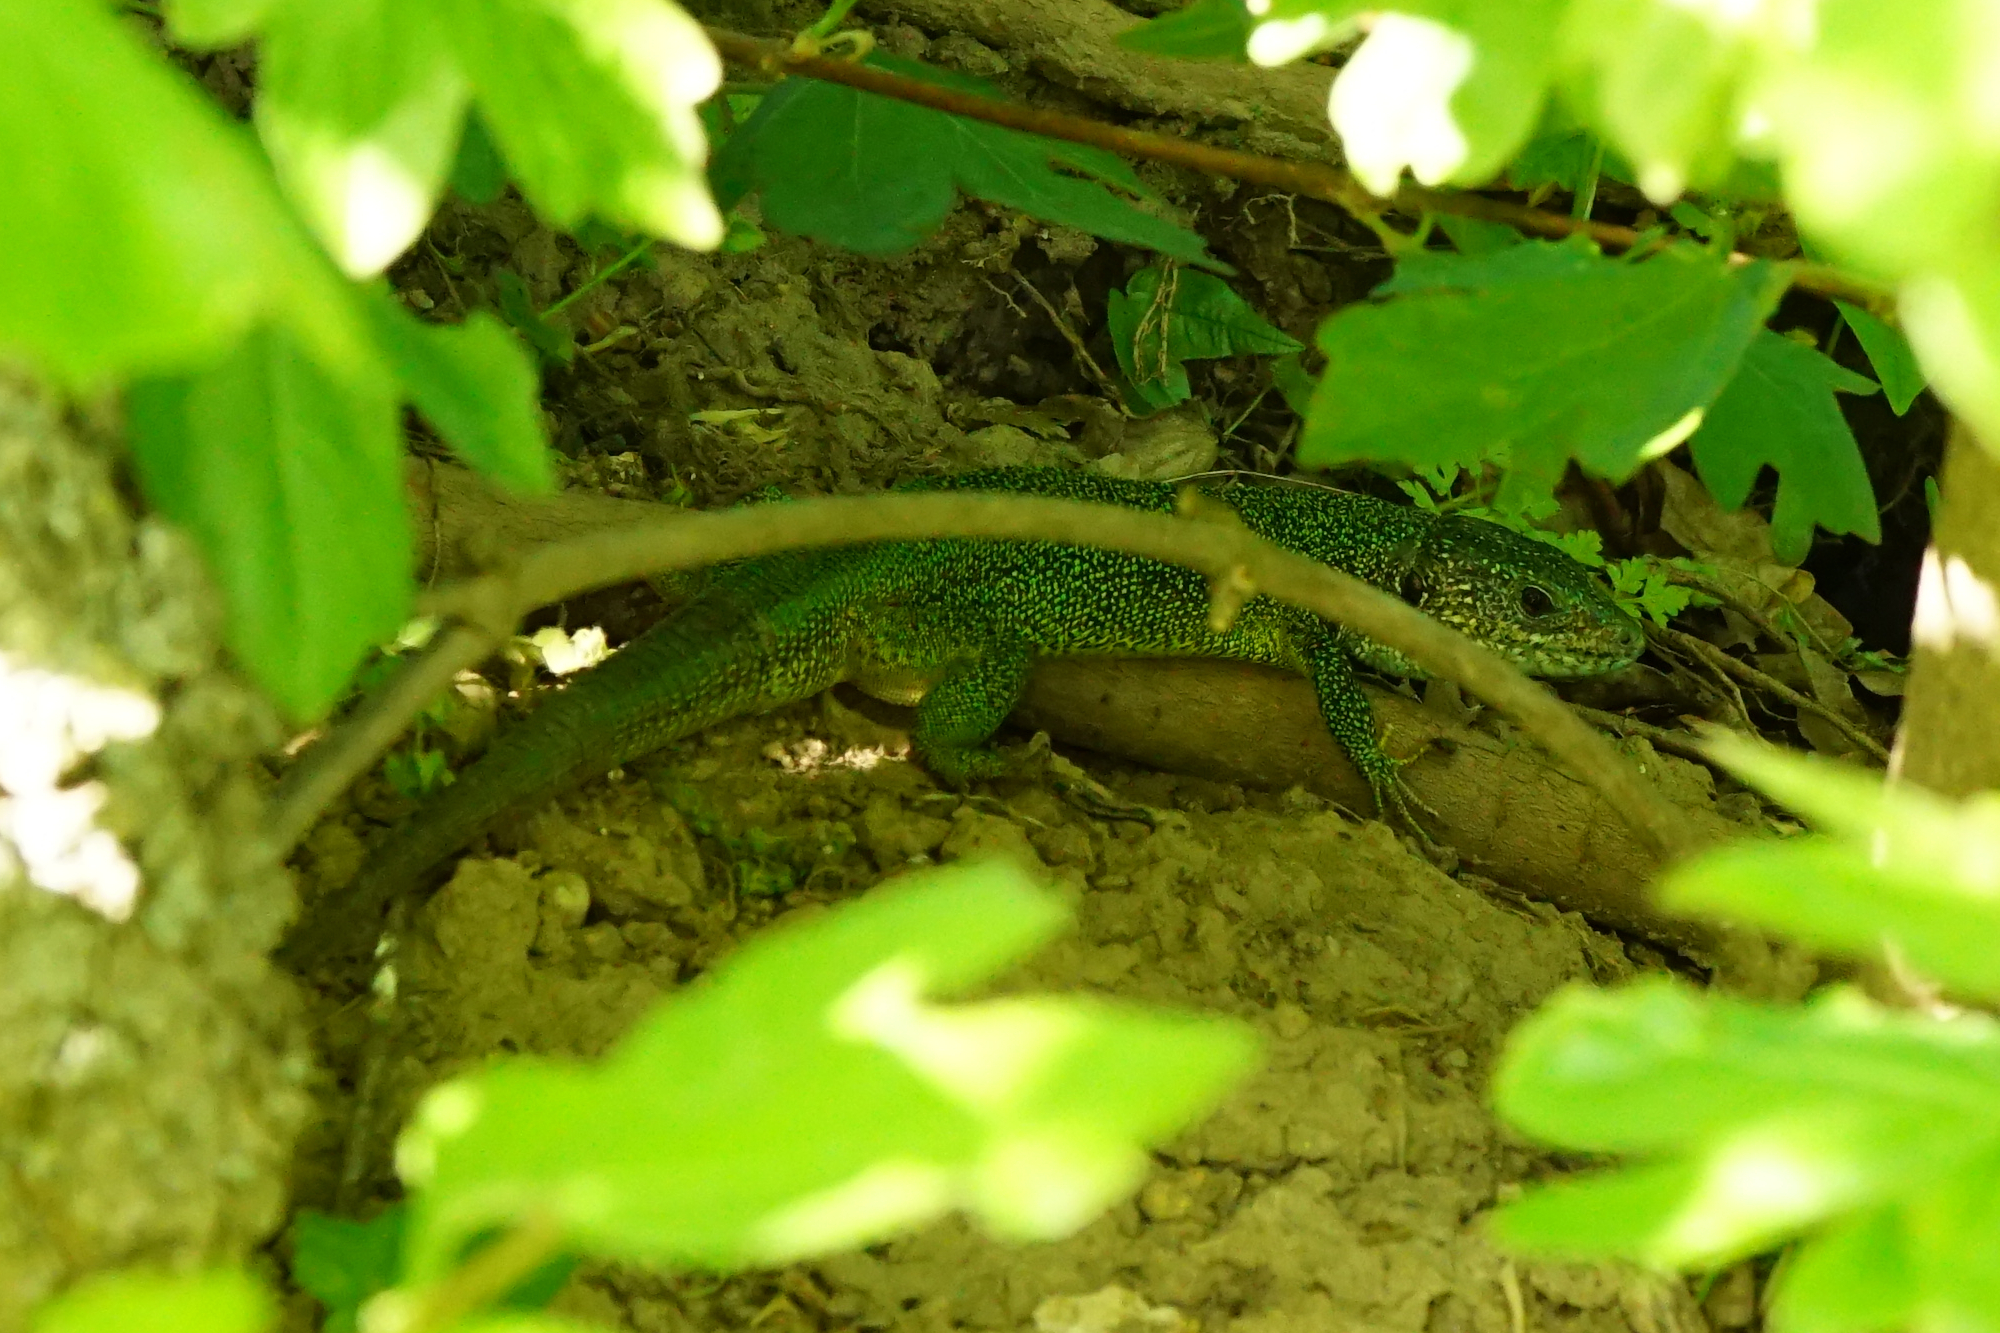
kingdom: Animalia
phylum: Chordata
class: Squamata
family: Lacertidae
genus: Lacerta
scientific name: Lacerta viridis
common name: European green lizard
